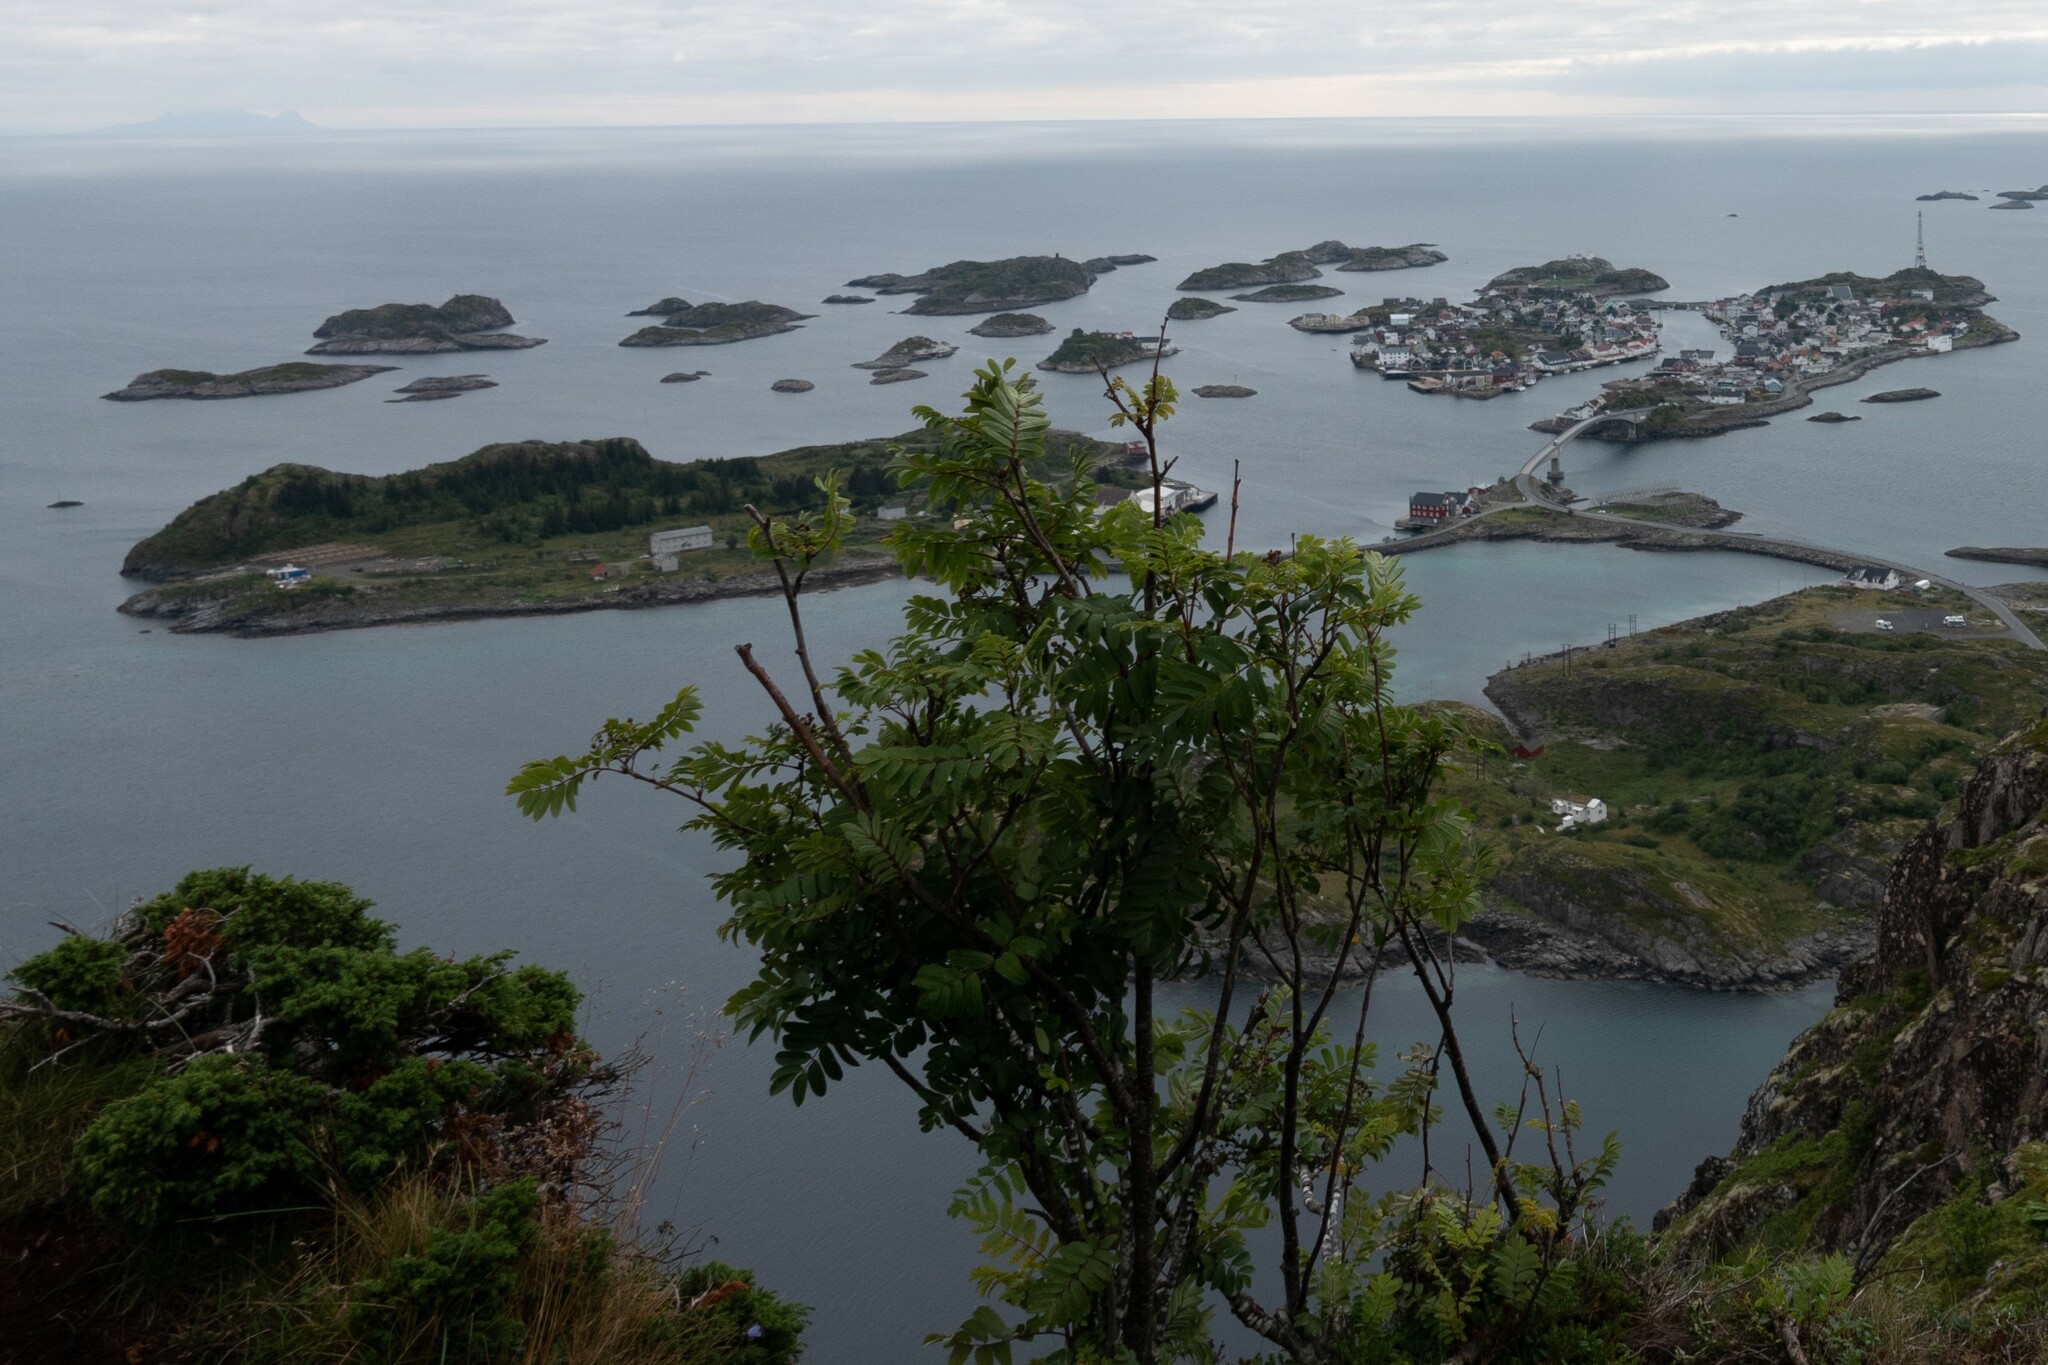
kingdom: Plantae
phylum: Tracheophyta
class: Magnoliopsida
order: Rosales
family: Rosaceae
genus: Sorbus
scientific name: Sorbus aucuparia
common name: Rowan
